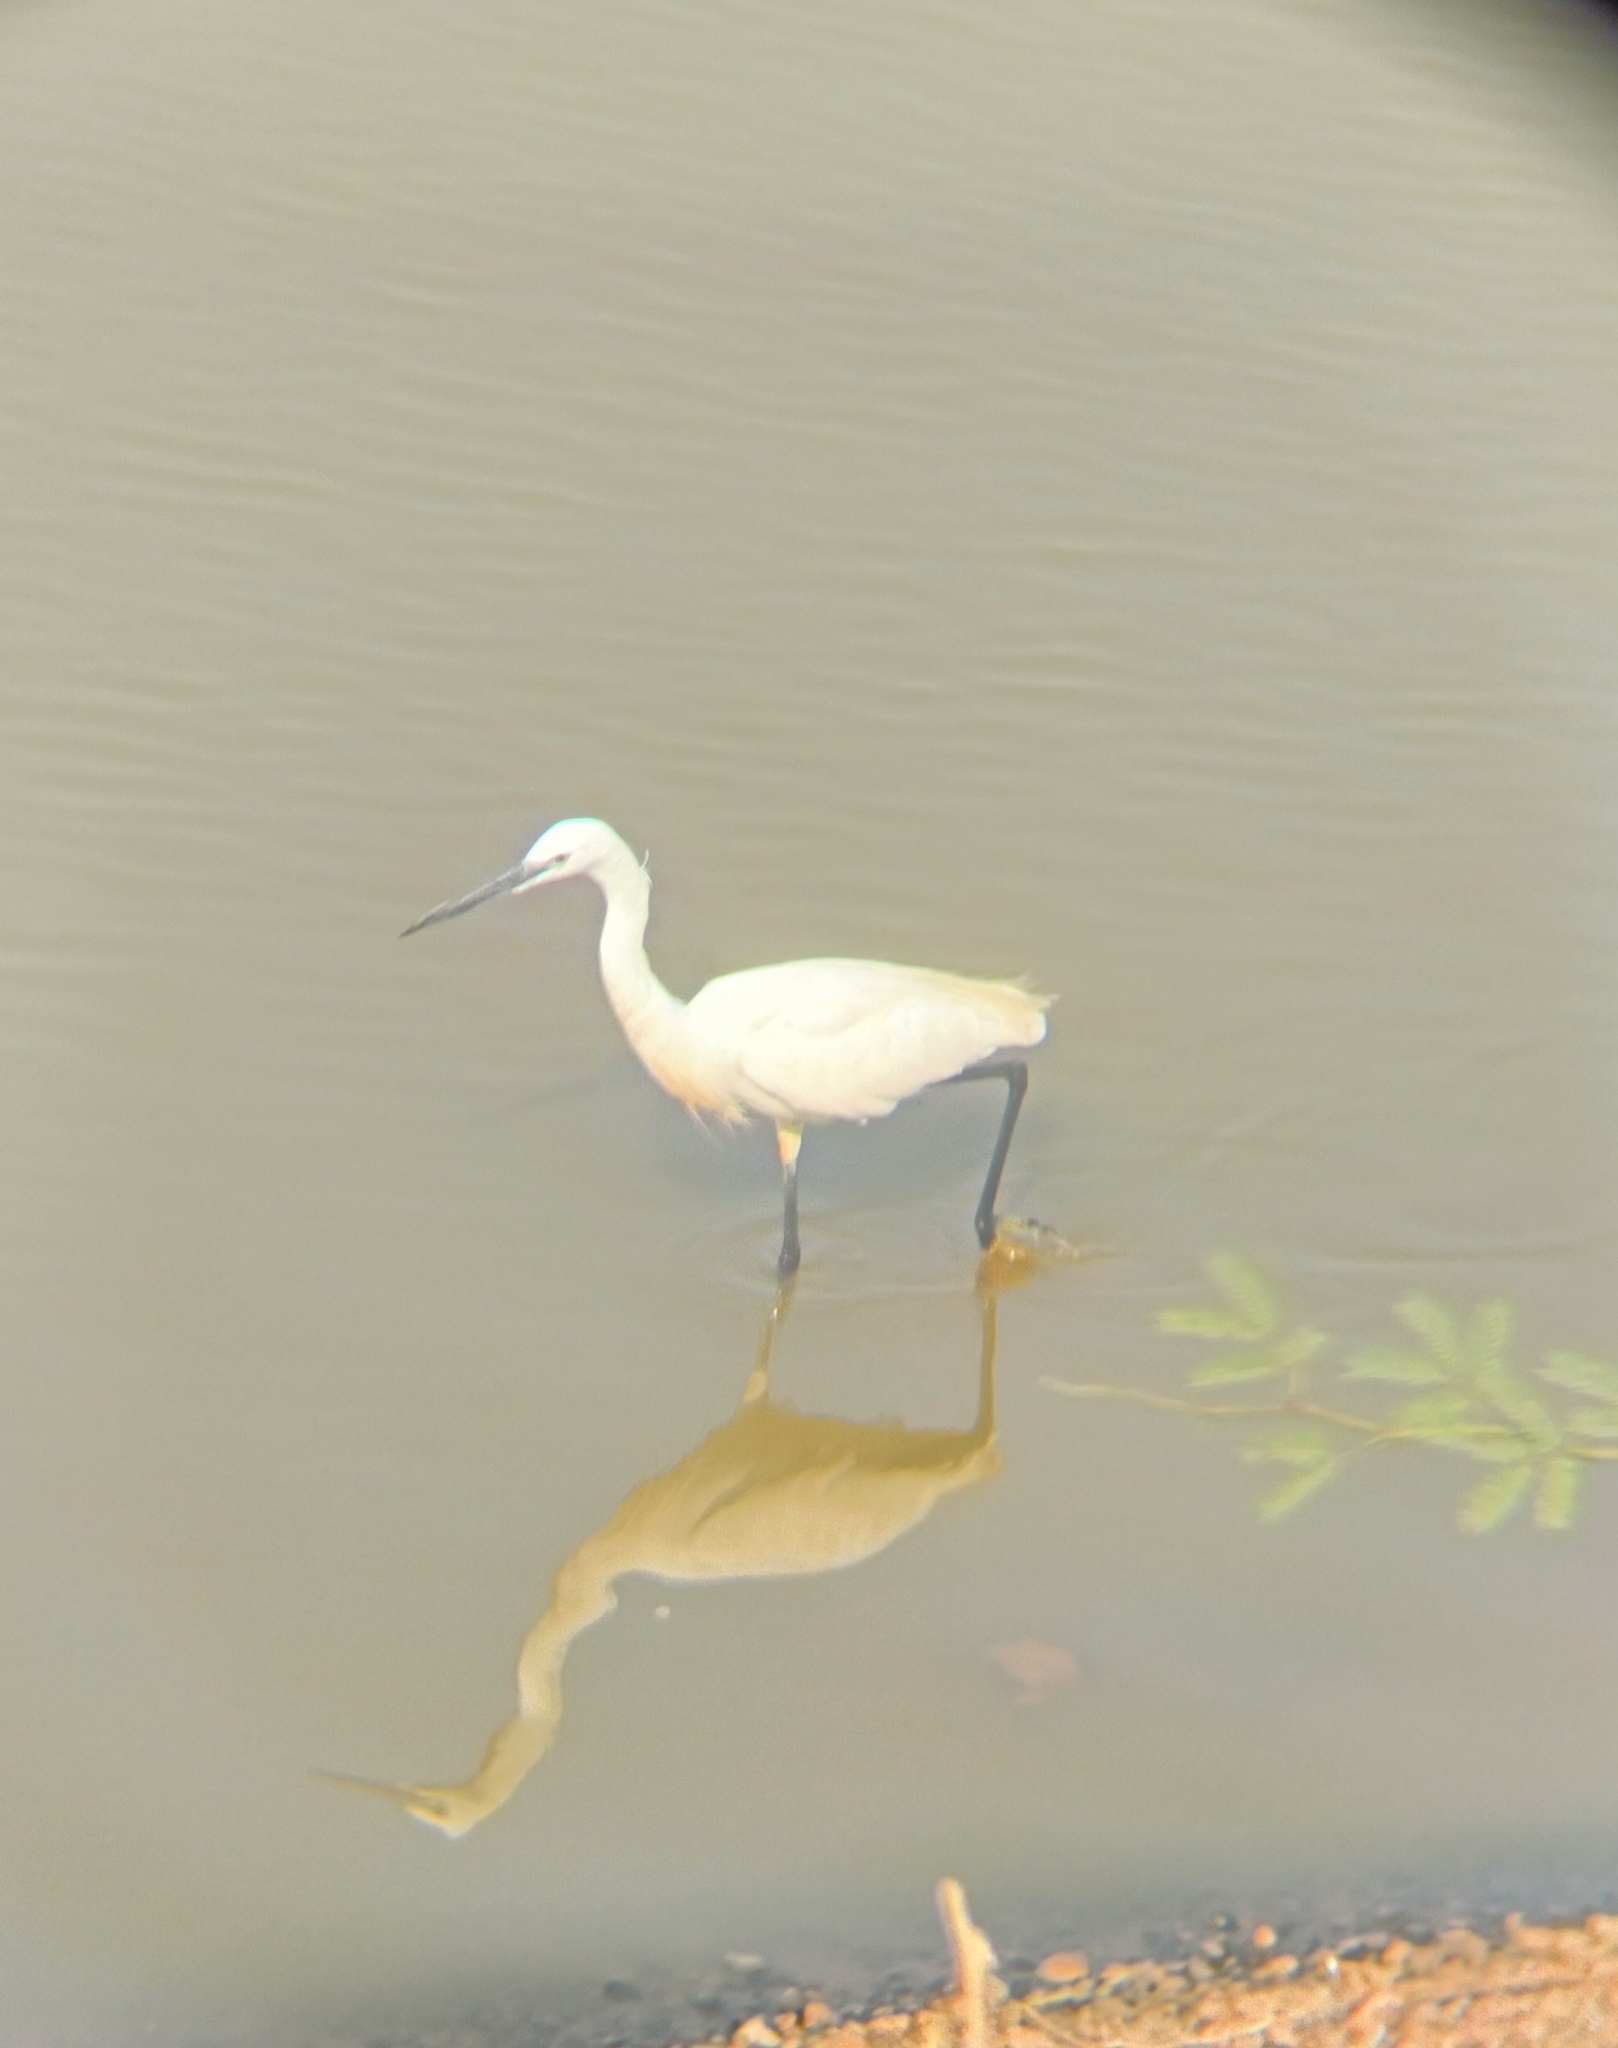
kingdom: Animalia
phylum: Chordata
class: Aves
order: Pelecaniformes
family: Ardeidae
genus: Egretta
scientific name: Egretta garzetta
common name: Little egret
